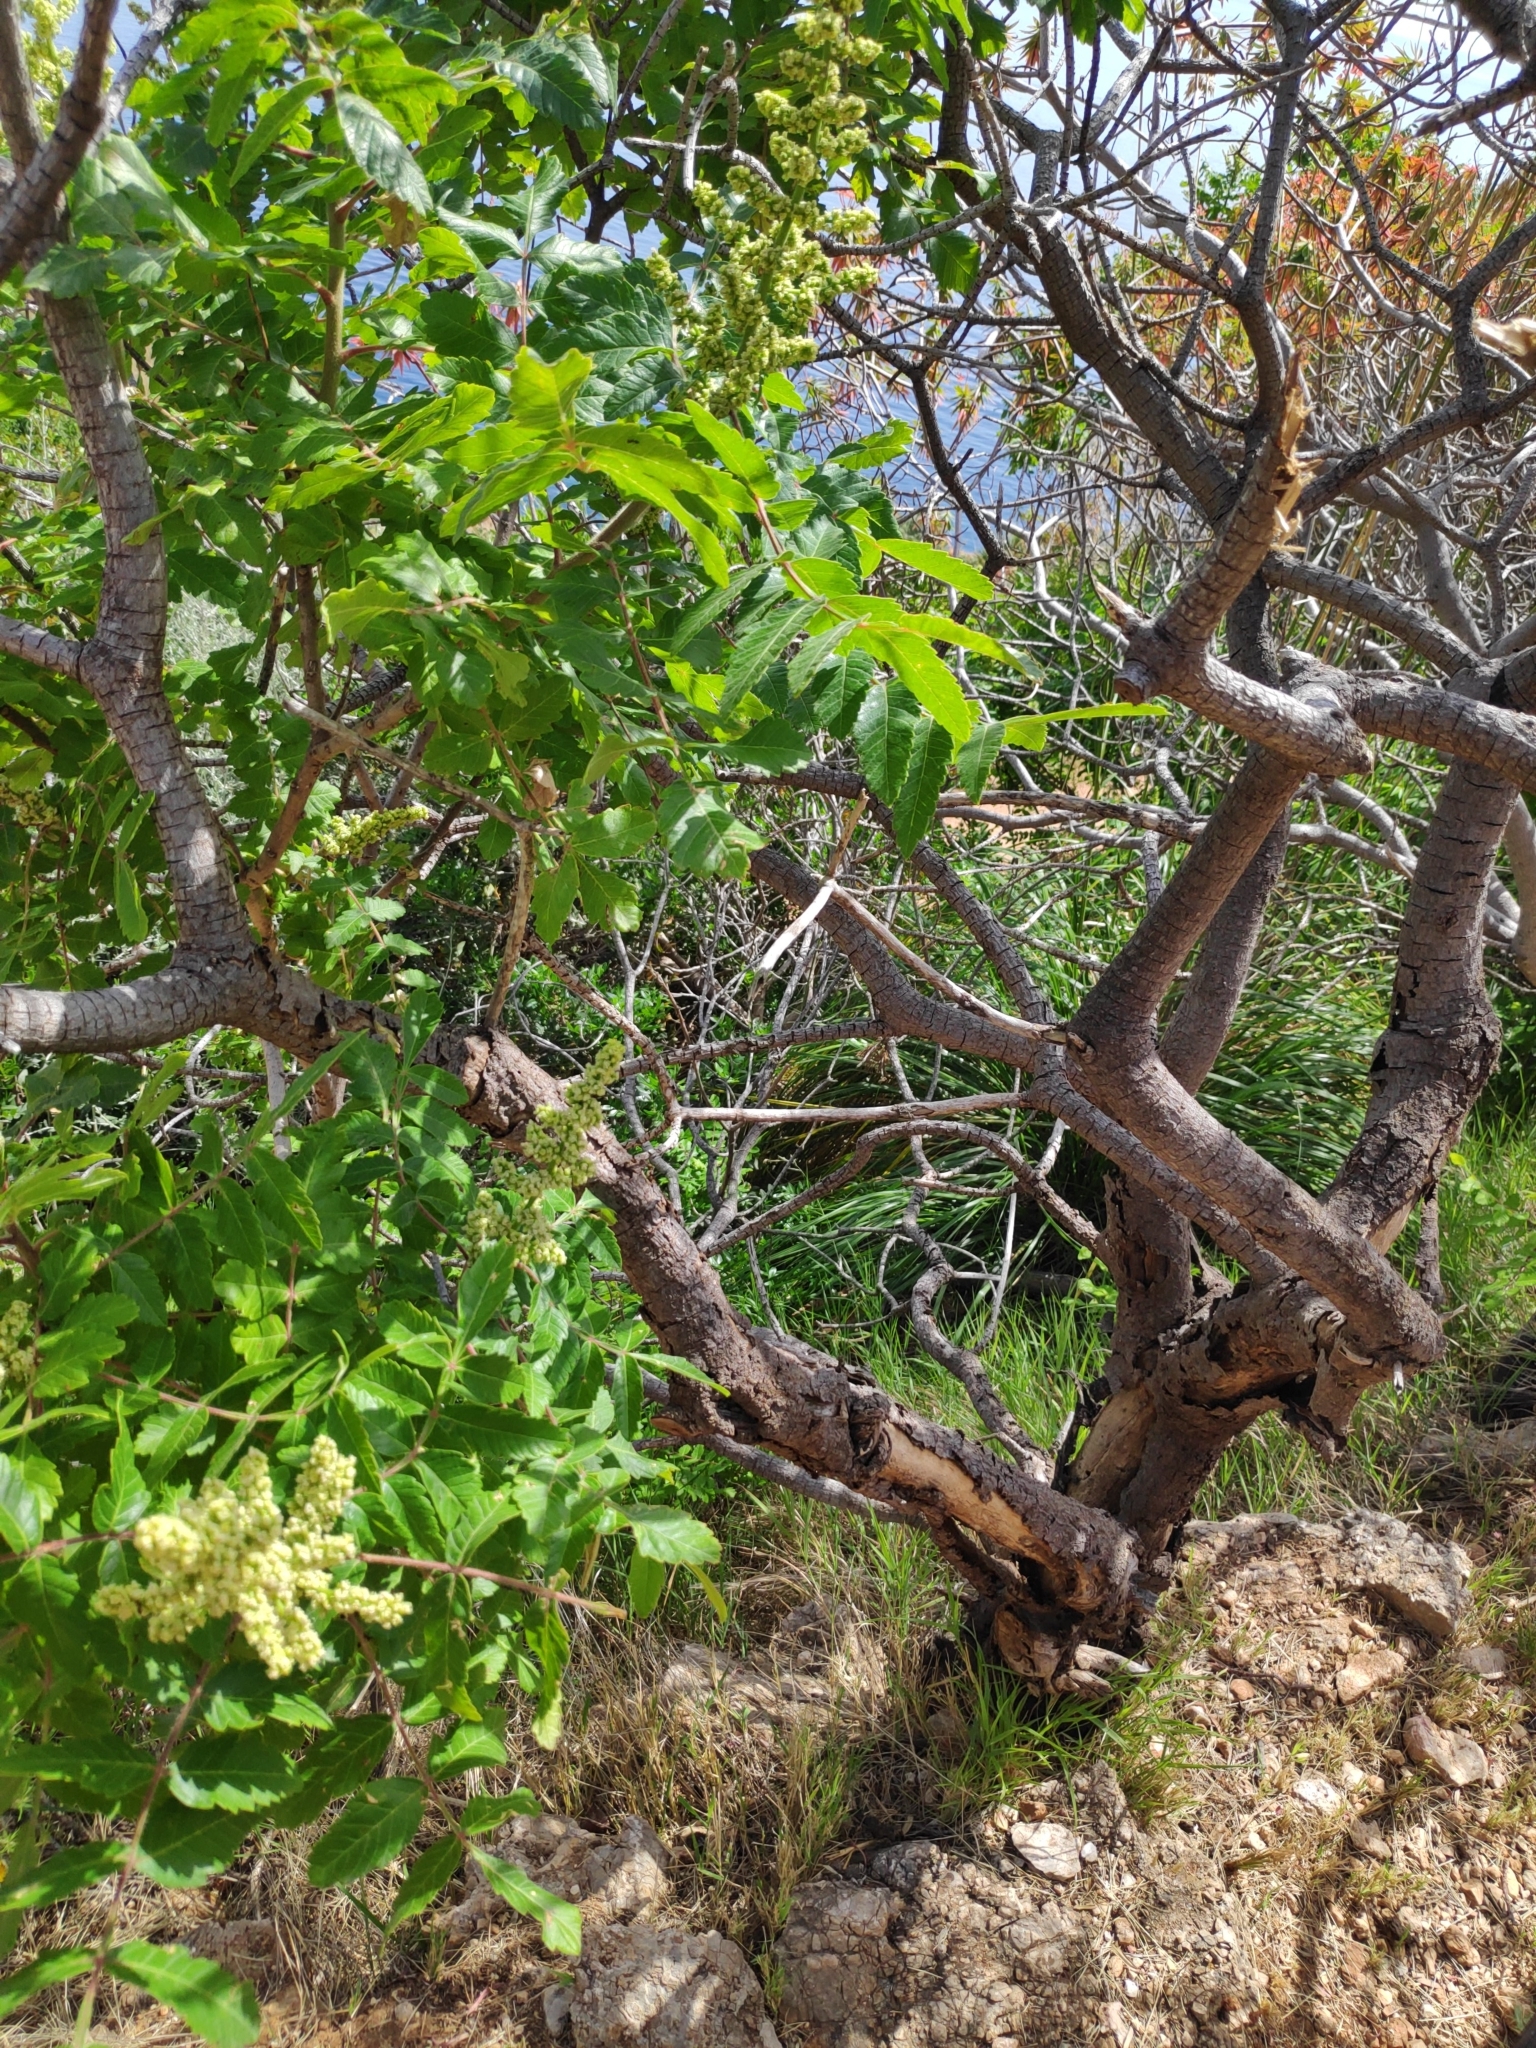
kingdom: Plantae
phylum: Tracheophyta
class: Magnoliopsida
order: Sapindales
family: Anacardiaceae
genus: Rhus
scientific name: Rhus coriaria
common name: Tanner's sumach
